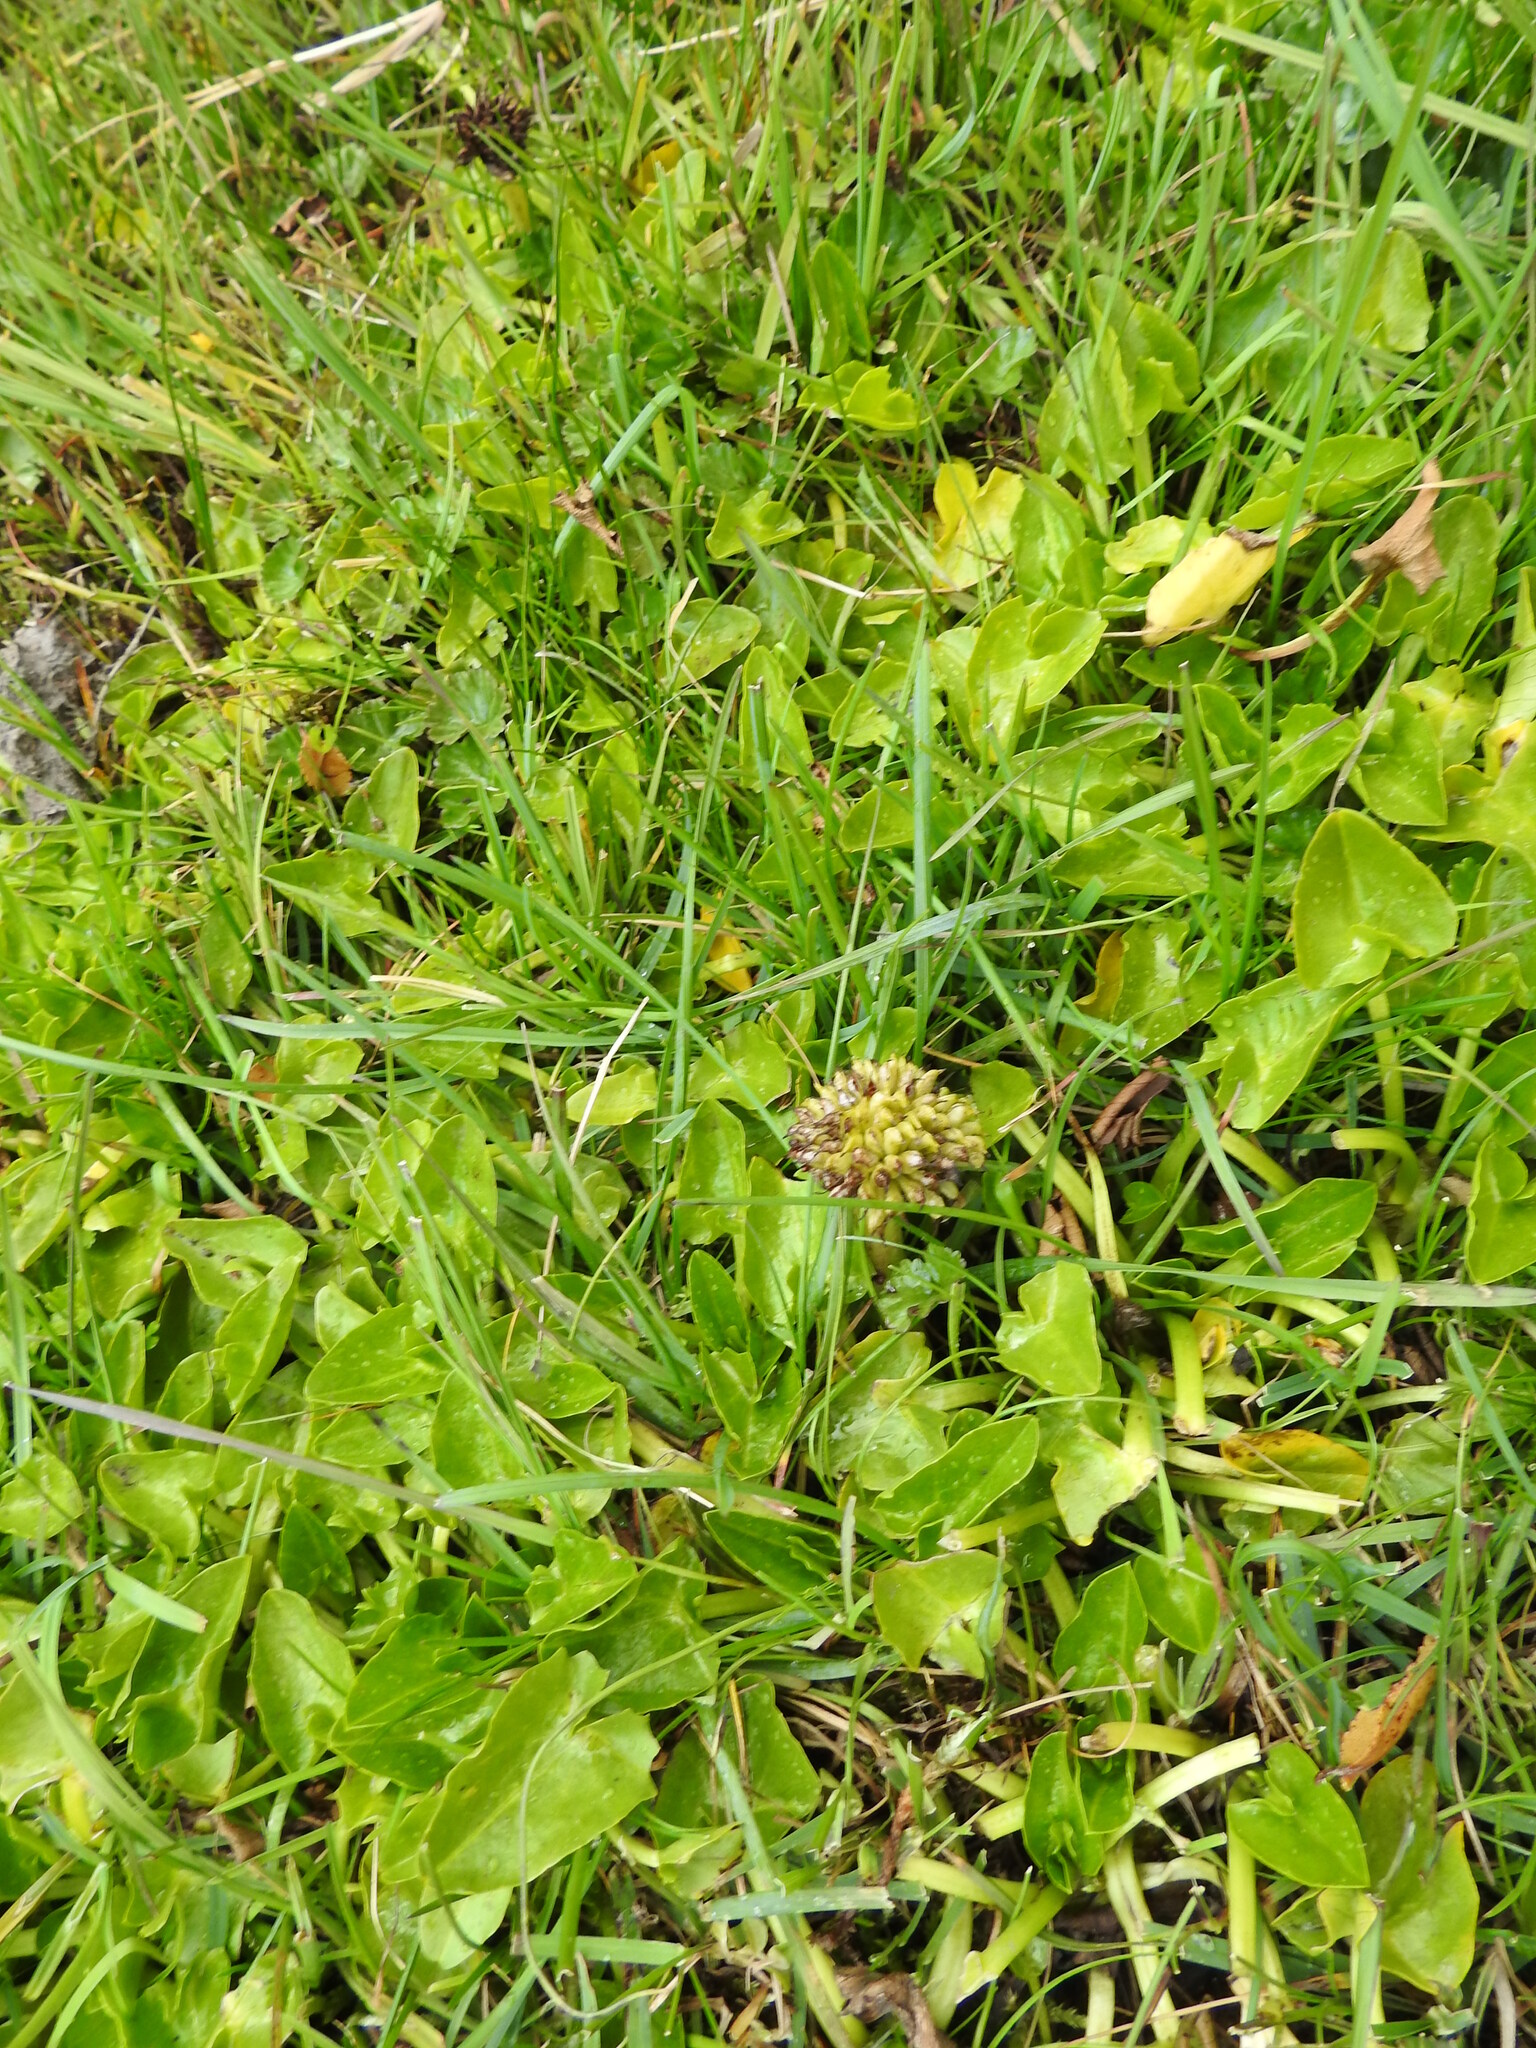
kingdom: Plantae
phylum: Tracheophyta
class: Magnoliopsida
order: Ranunculales
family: Ranunculaceae
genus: Caltha
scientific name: Caltha sagittata
